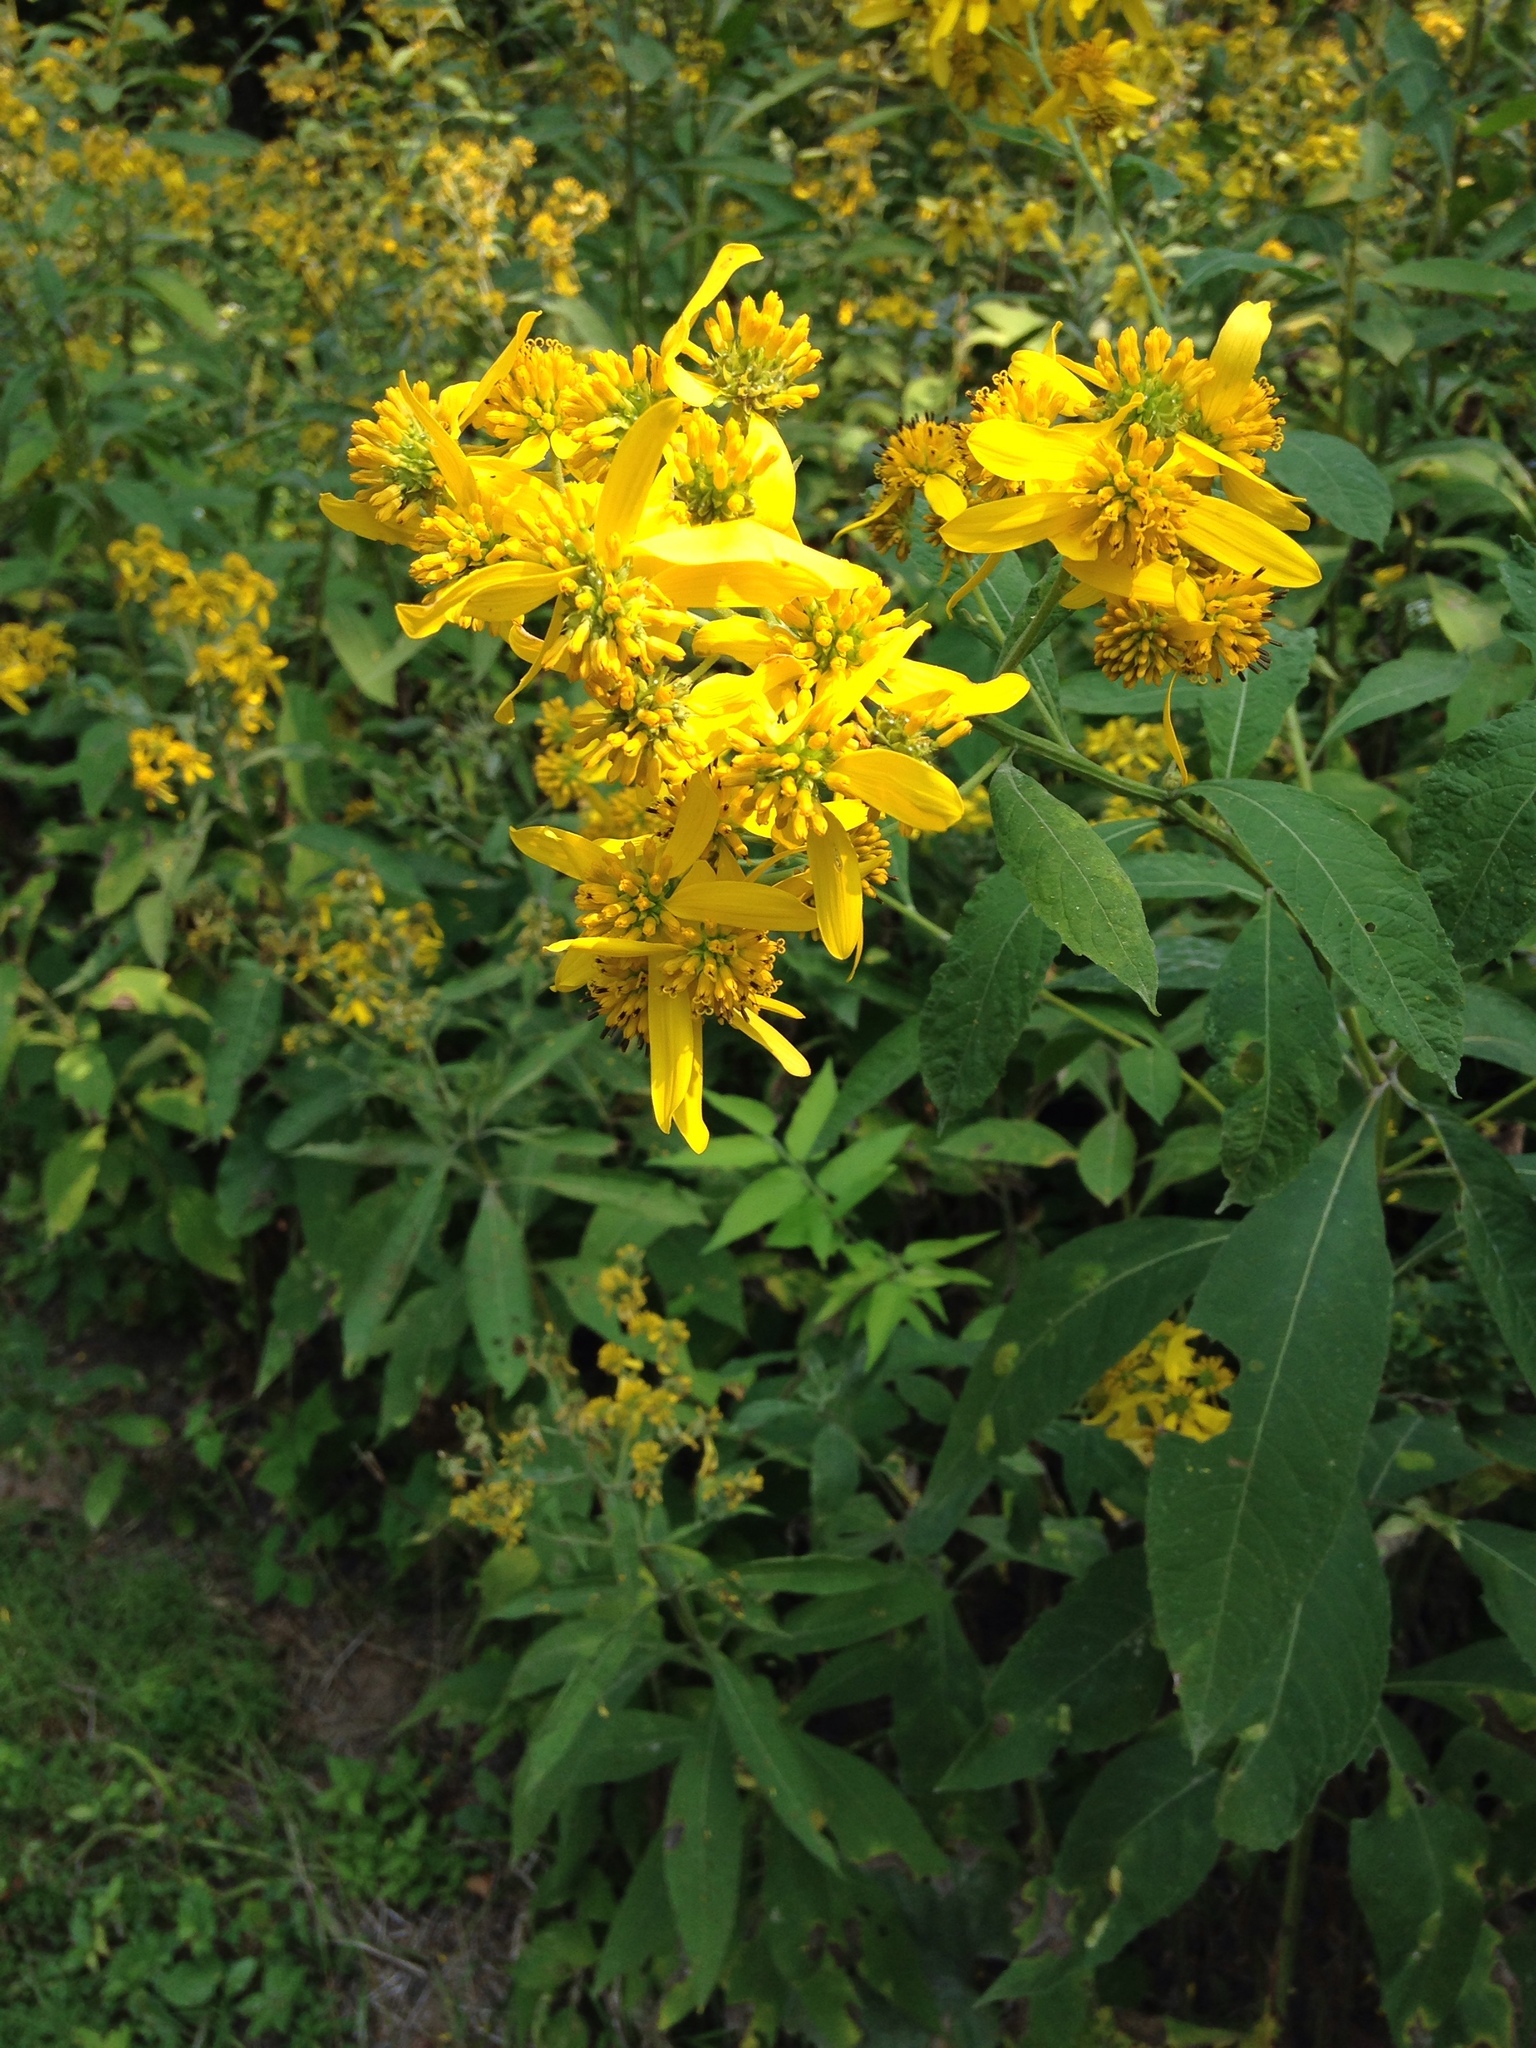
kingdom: Plantae
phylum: Tracheophyta
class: Magnoliopsida
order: Asterales
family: Asteraceae
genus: Verbesina
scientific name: Verbesina alternifolia
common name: Wingstem
